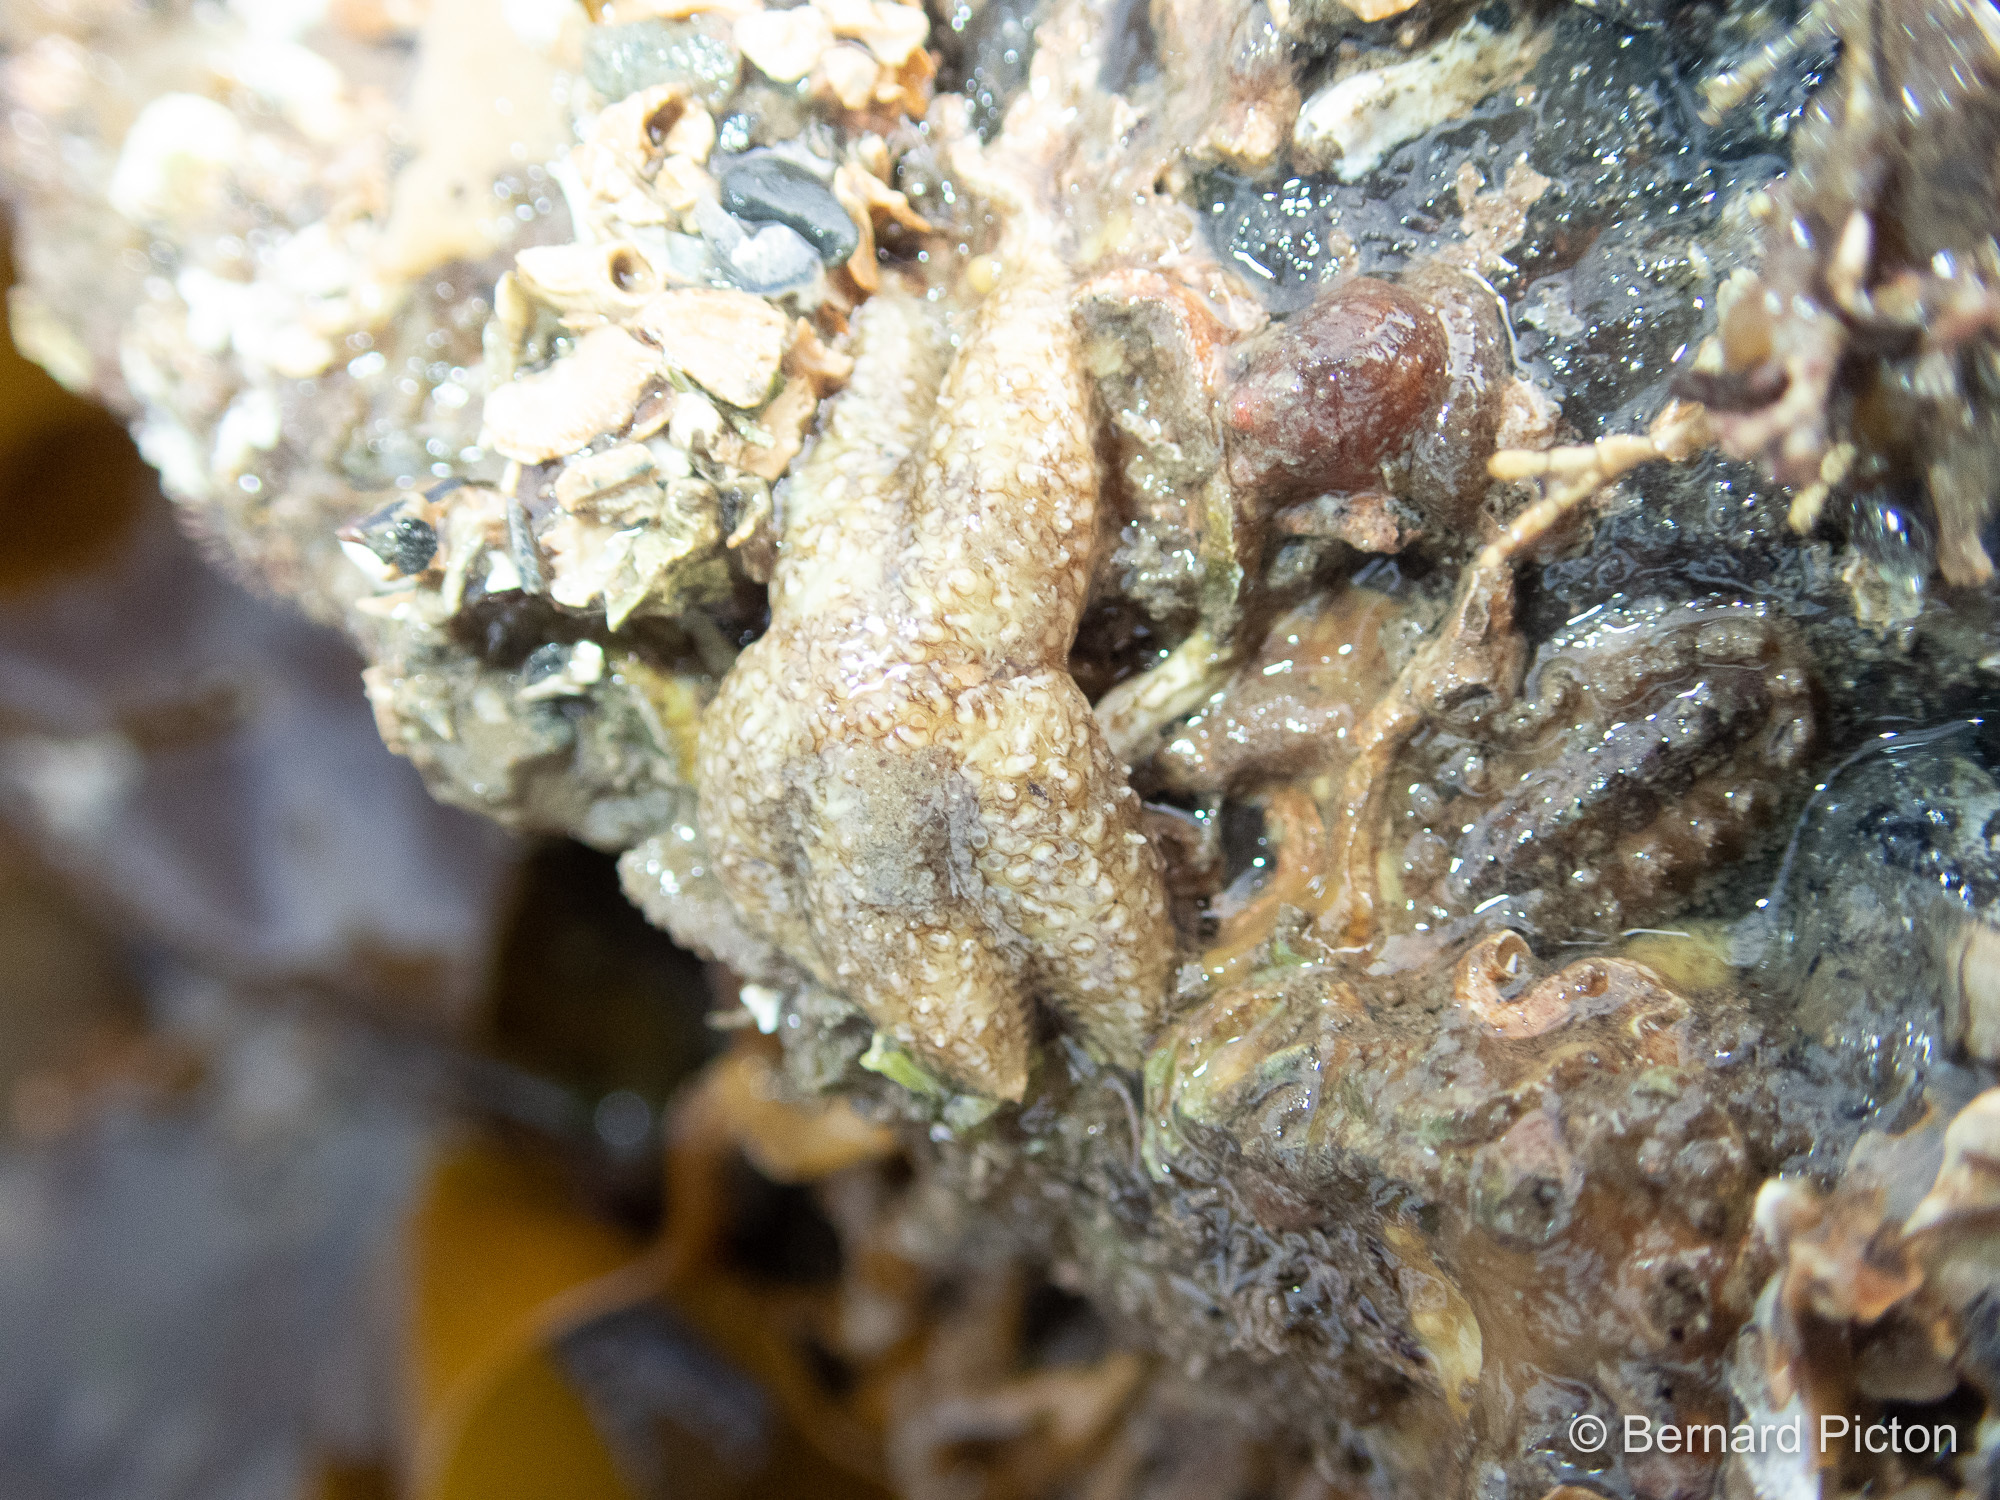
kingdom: Animalia
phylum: Echinodermata
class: Asteroidea
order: Forcipulatida
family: Asteriidae
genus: Leptasterias
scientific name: Leptasterias muelleri
